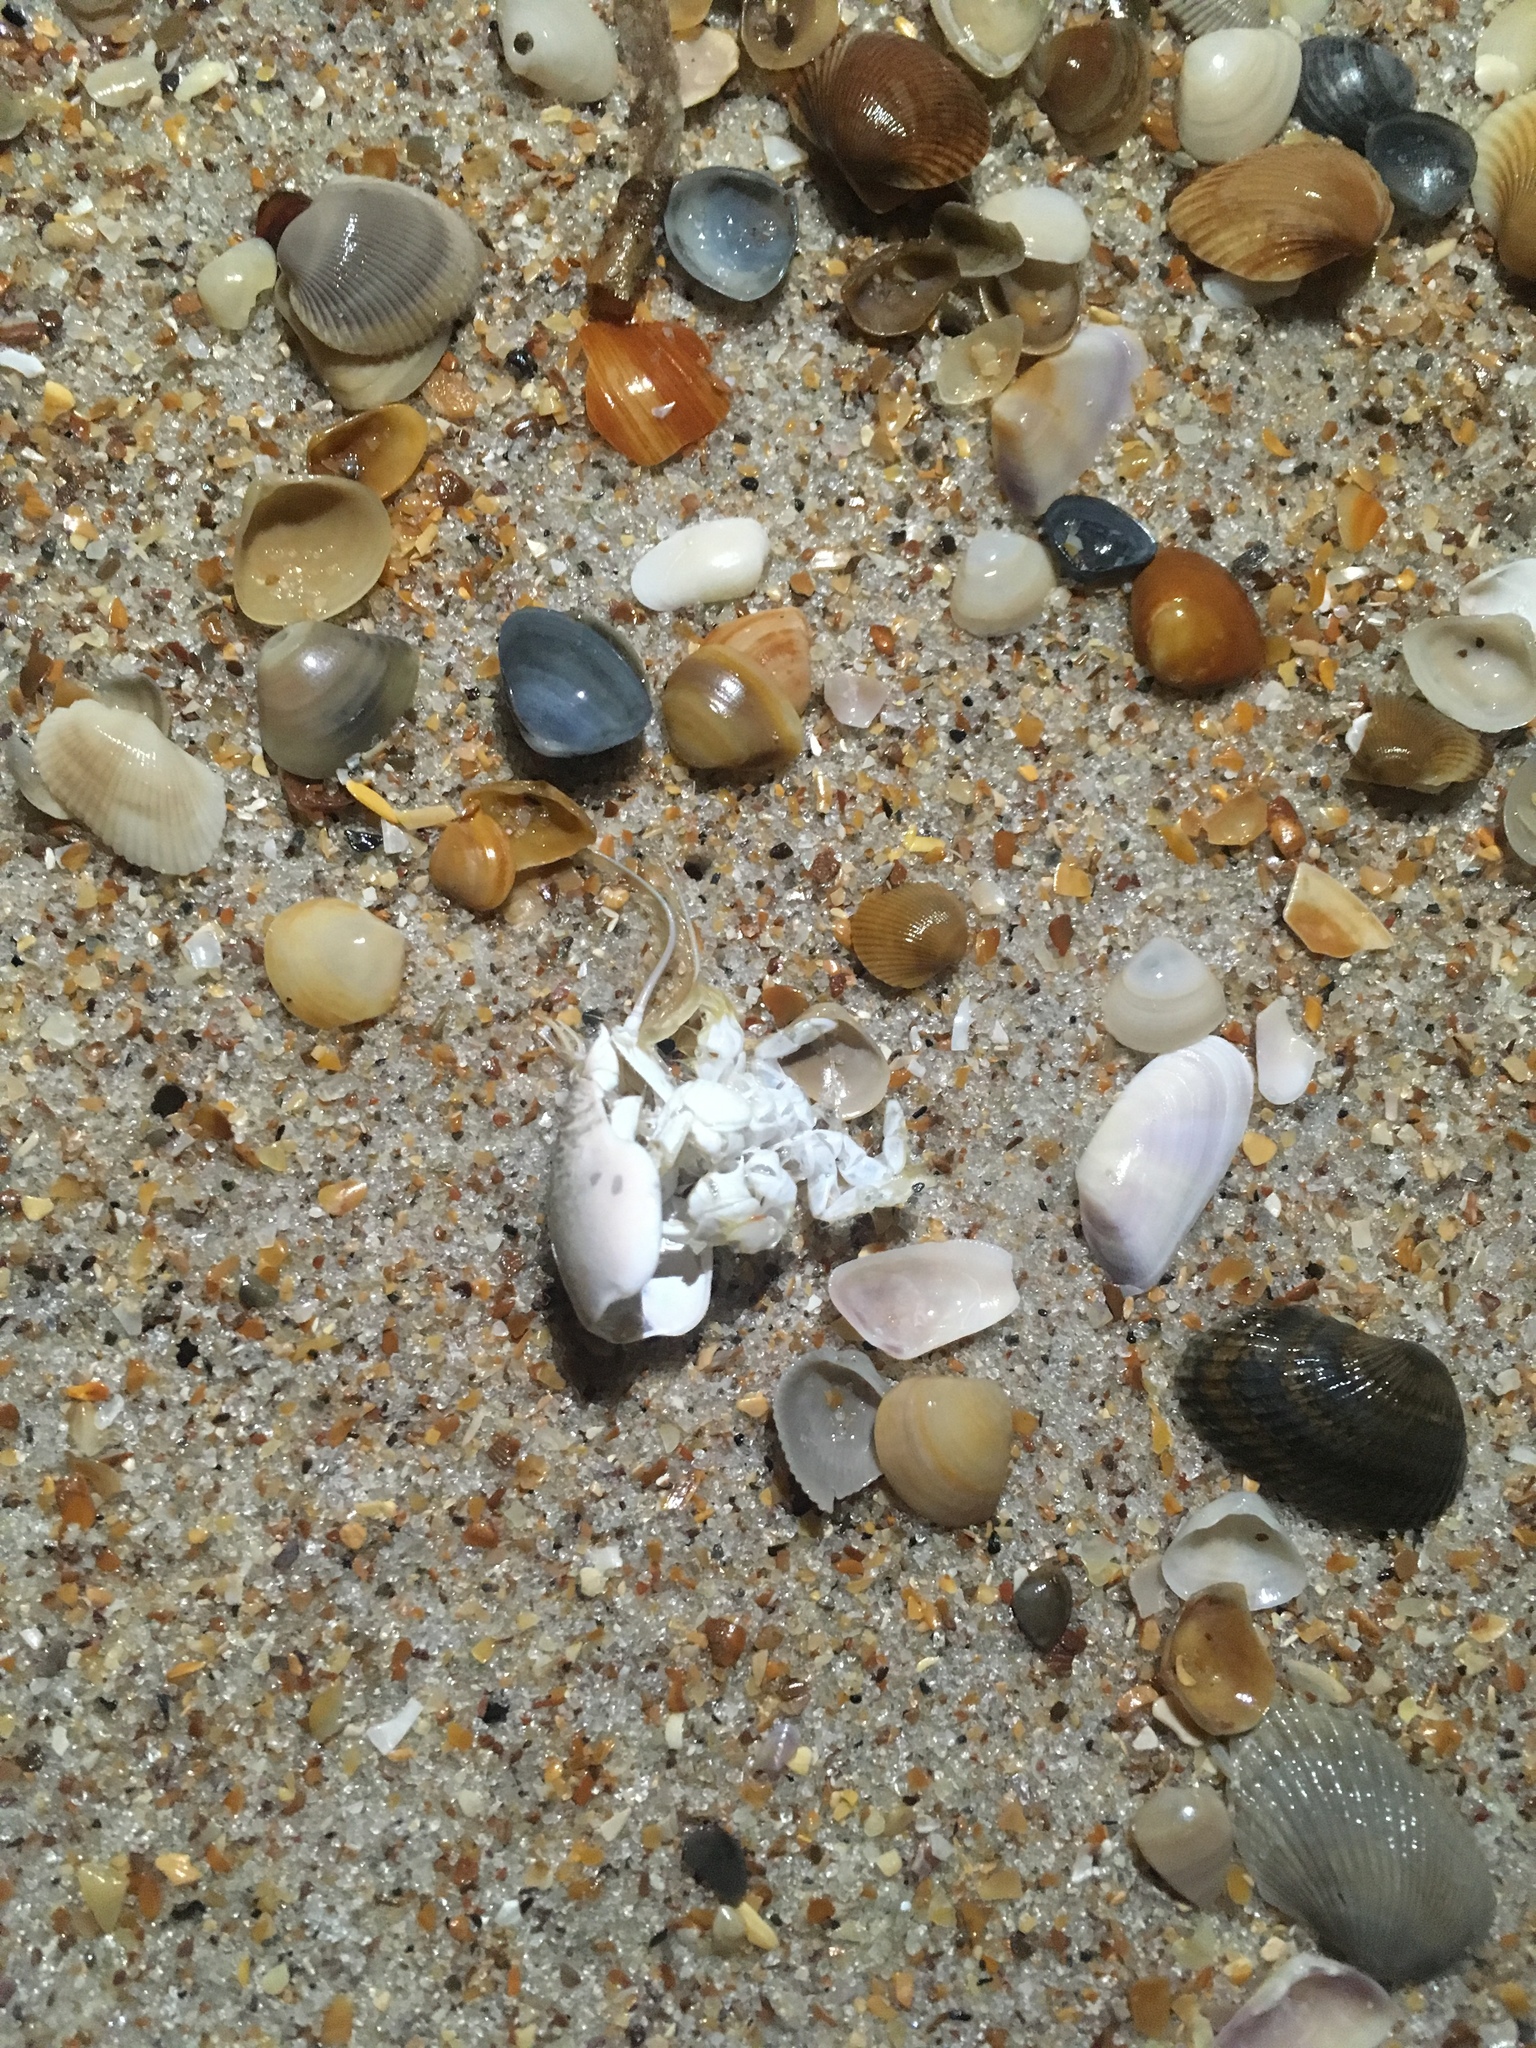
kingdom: Animalia
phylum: Arthropoda
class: Malacostraca
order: Decapoda
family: Hippidae
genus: Emerita
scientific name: Emerita talpoida
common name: Atlantic sand crab
